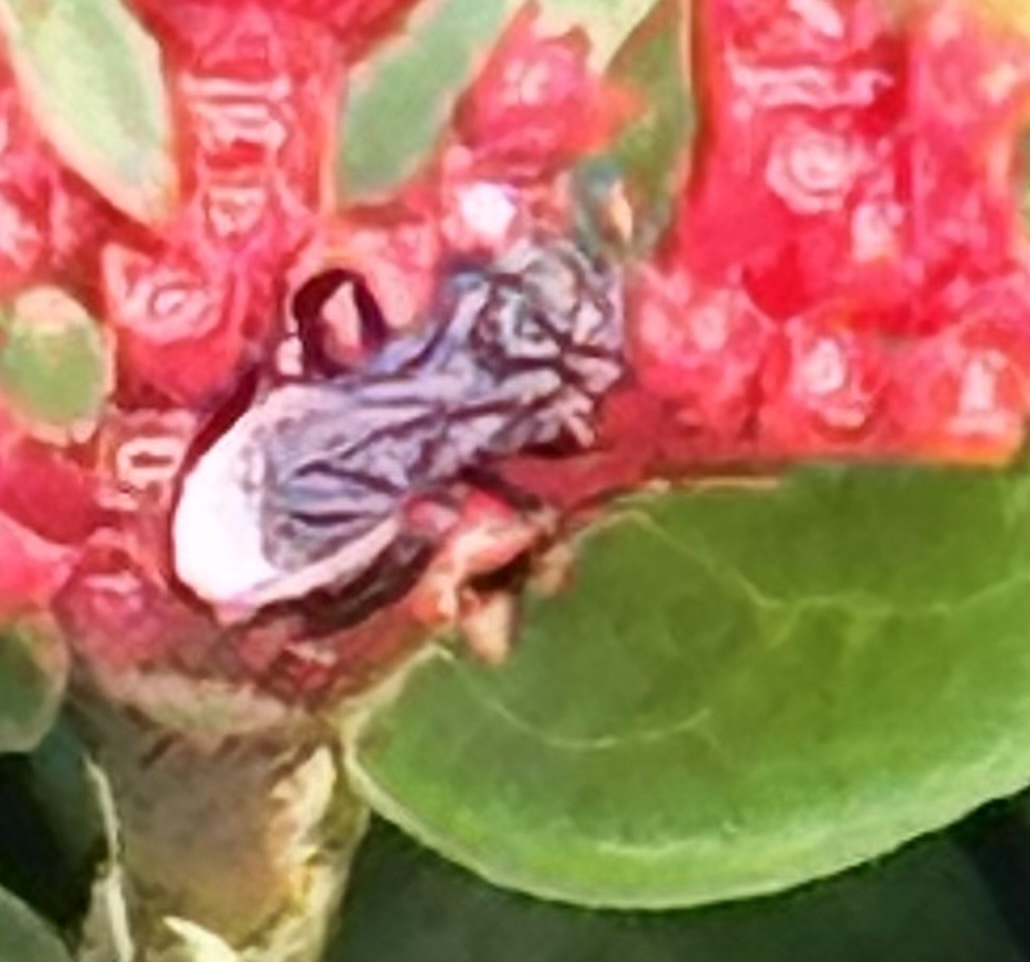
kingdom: Animalia
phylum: Arthropoda
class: Insecta
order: Hymenoptera
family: Apidae
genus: Frieseomelitta
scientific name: Frieseomelitta nigra
